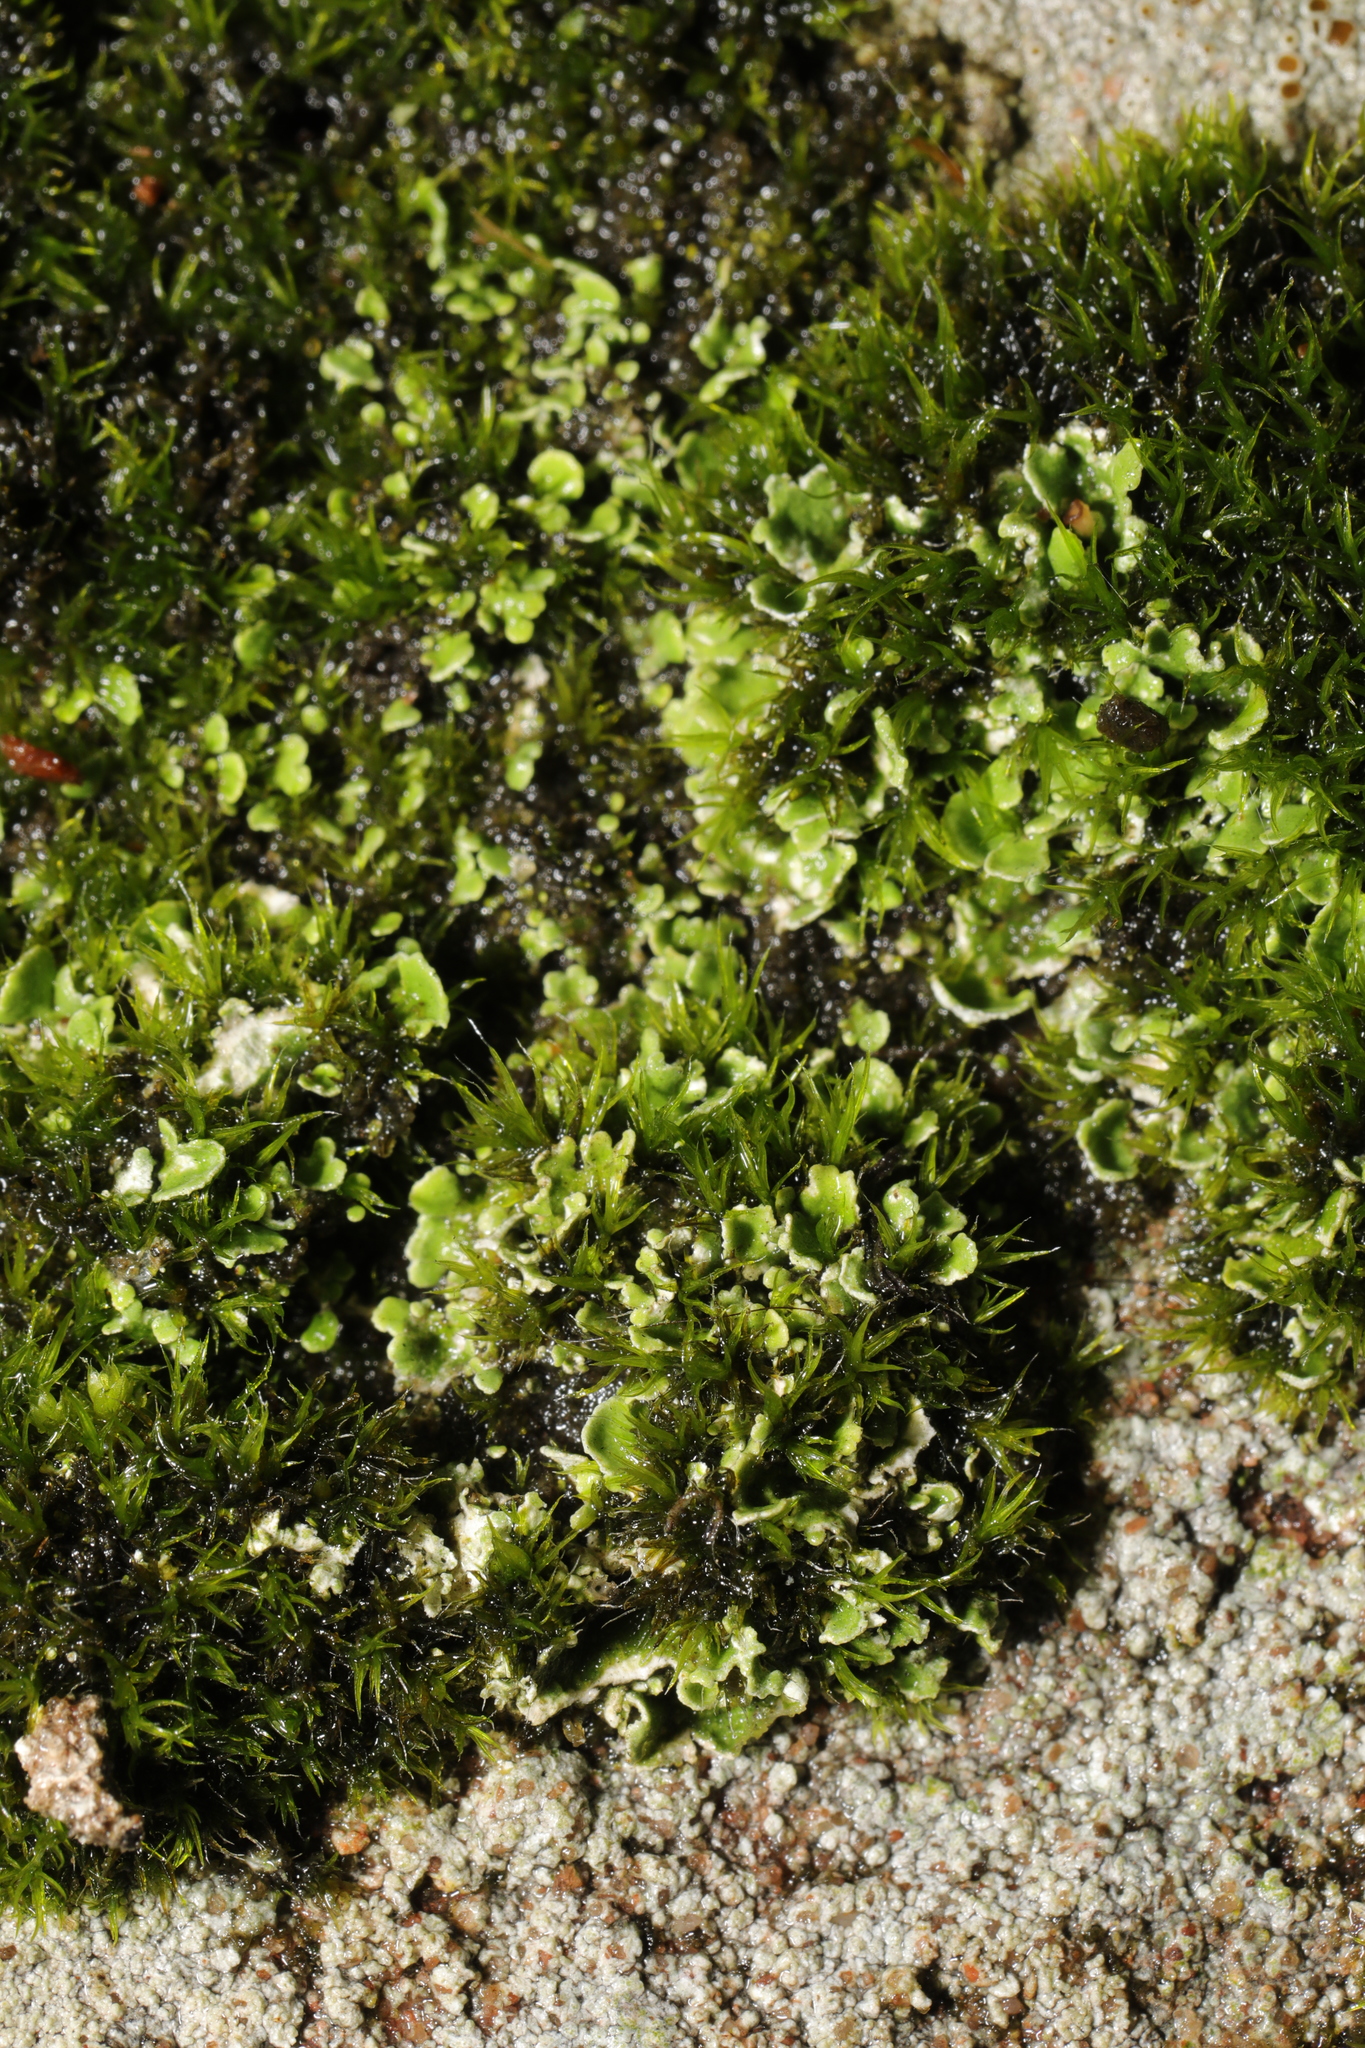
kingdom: Fungi
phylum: Ascomycota
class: Lecanoromycetes
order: Lecanorales
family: Cladoniaceae
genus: Cladonia
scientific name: Cladonia
